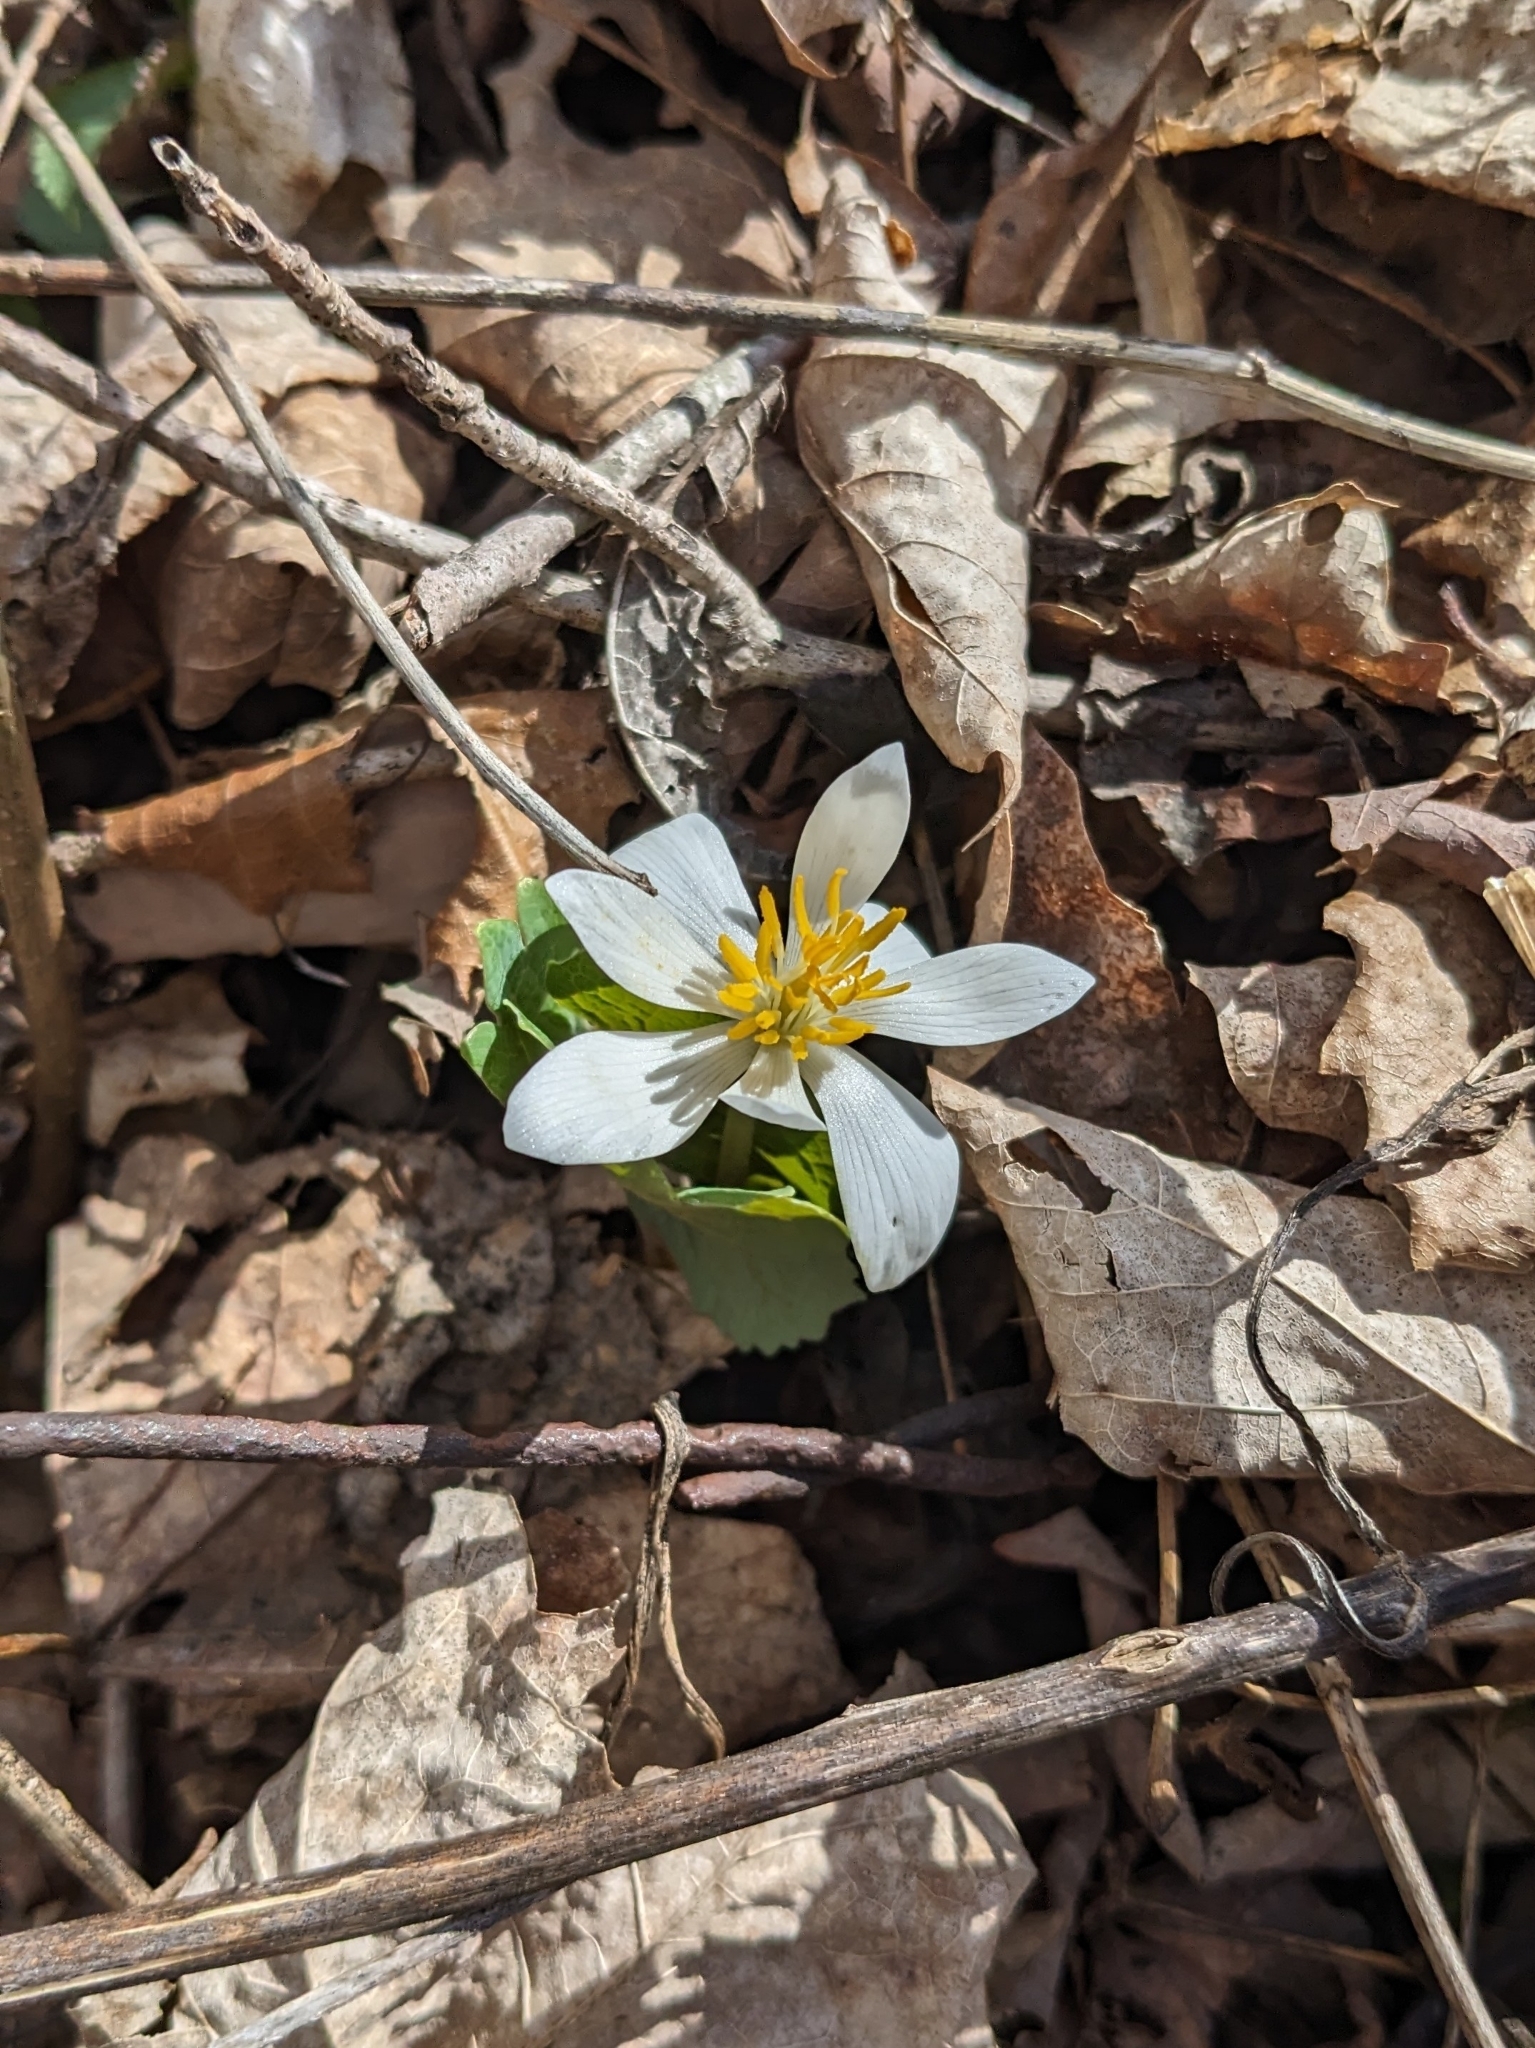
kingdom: Plantae
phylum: Tracheophyta
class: Magnoliopsida
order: Ranunculales
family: Papaveraceae
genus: Sanguinaria
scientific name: Sanguinaria canadensis
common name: Bloodroot
